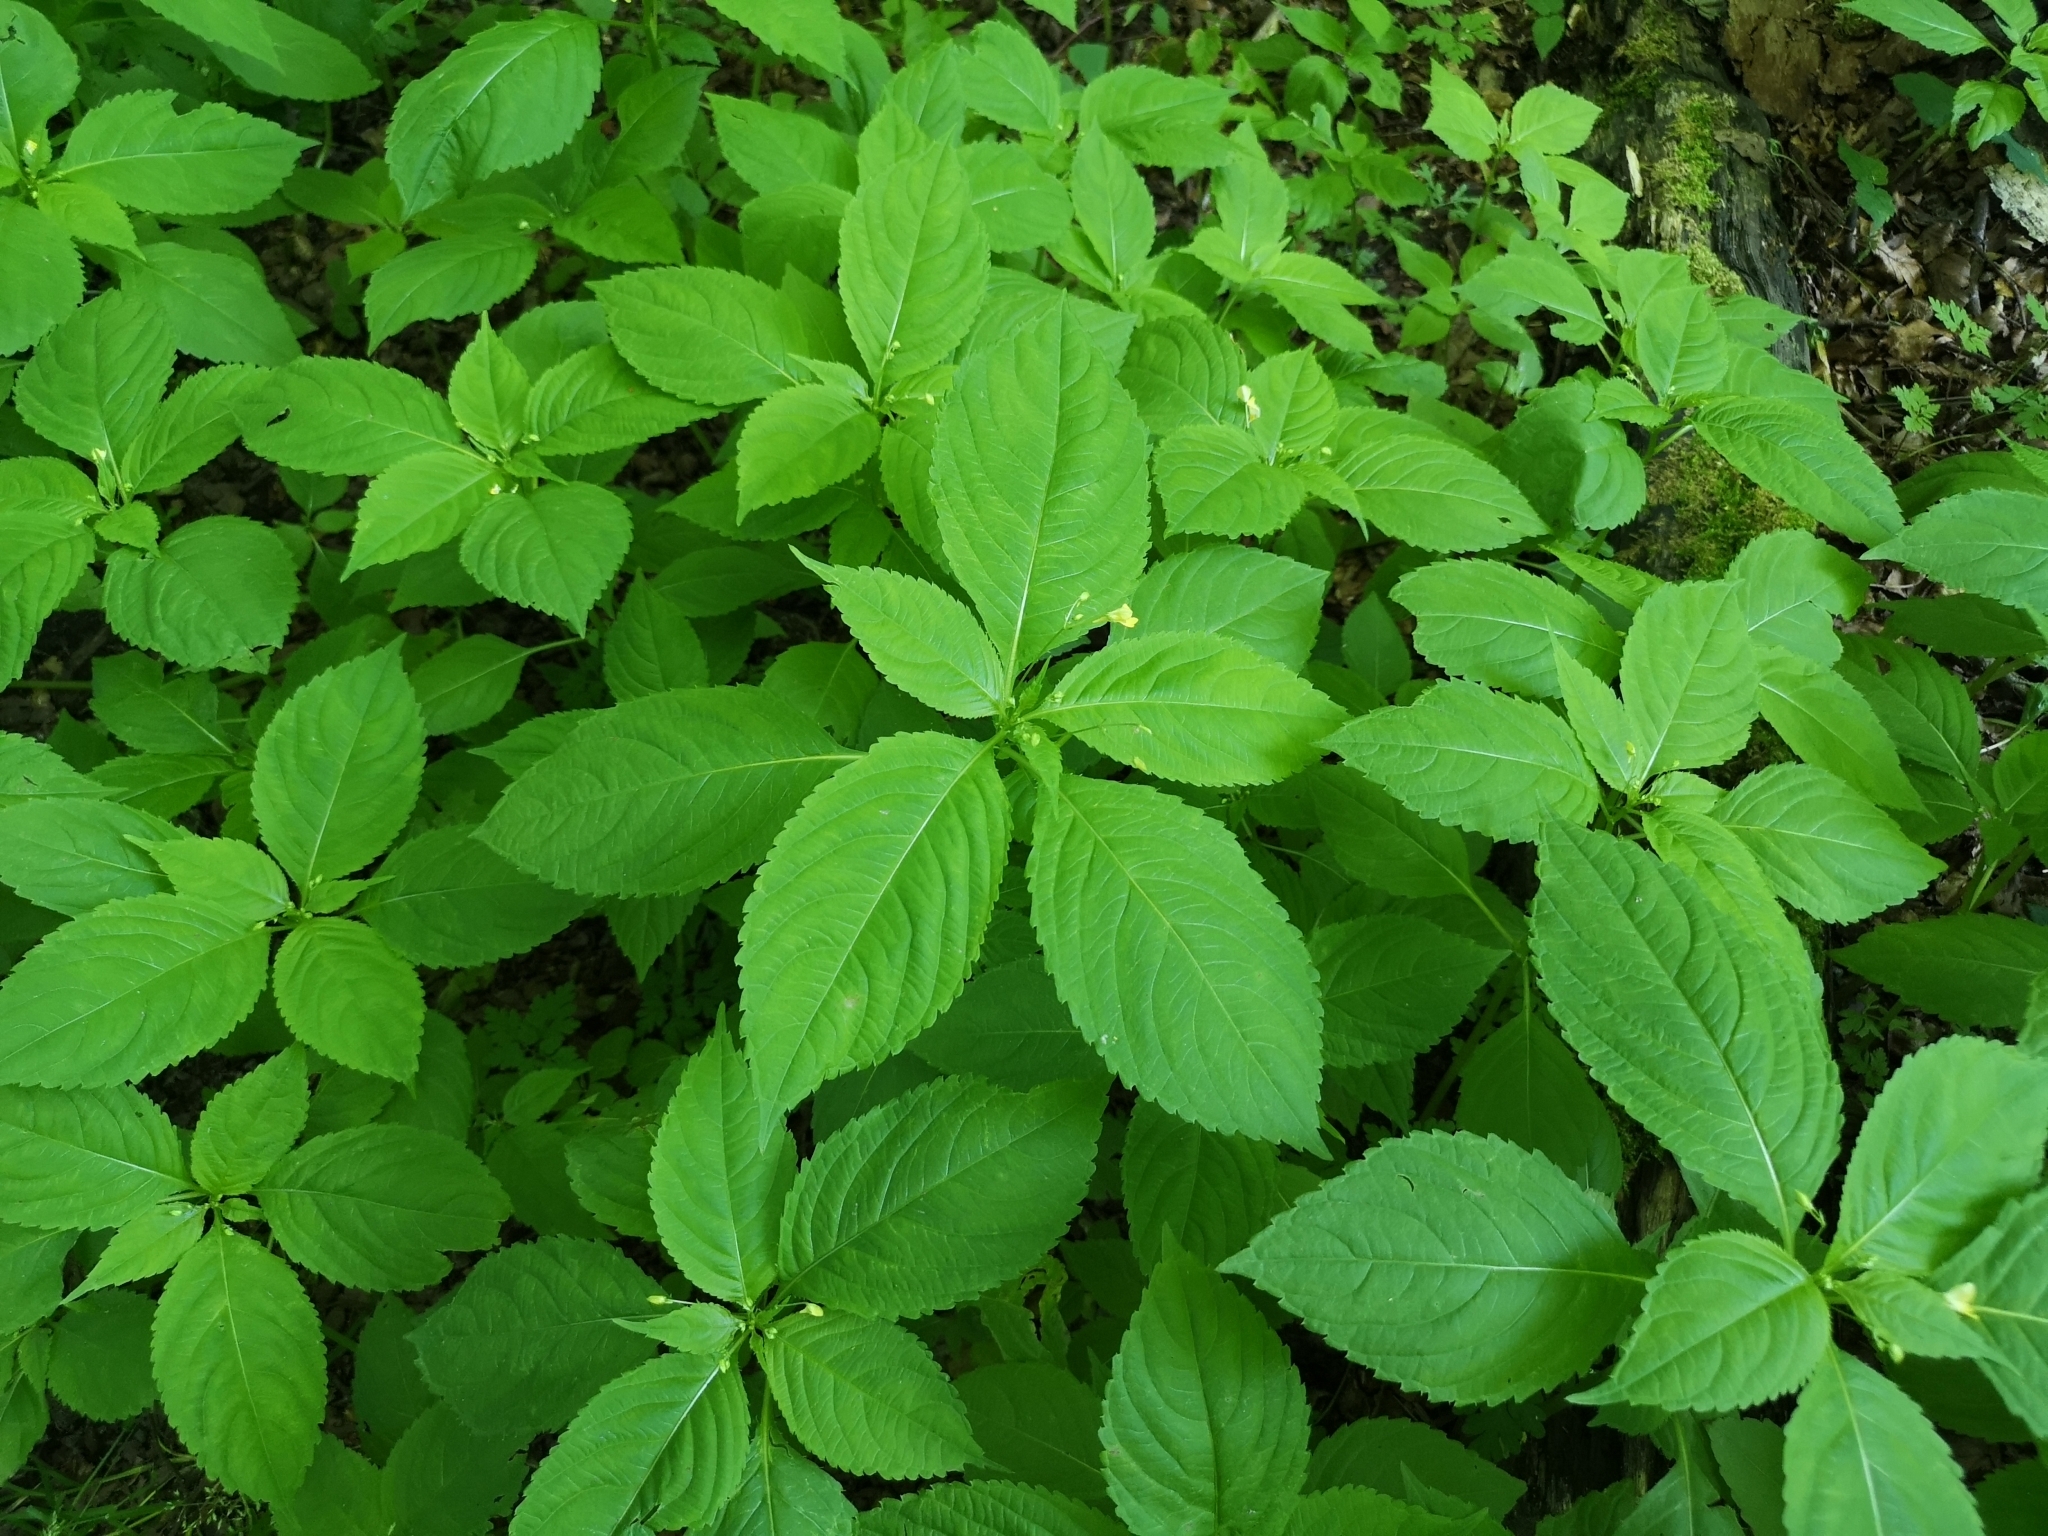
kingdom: Plantae
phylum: Tracheophyta
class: Magnoliopsida
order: Ericales
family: Balsaminaceae
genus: Impatiens
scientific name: Impatiens parviflora
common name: Small balsam
